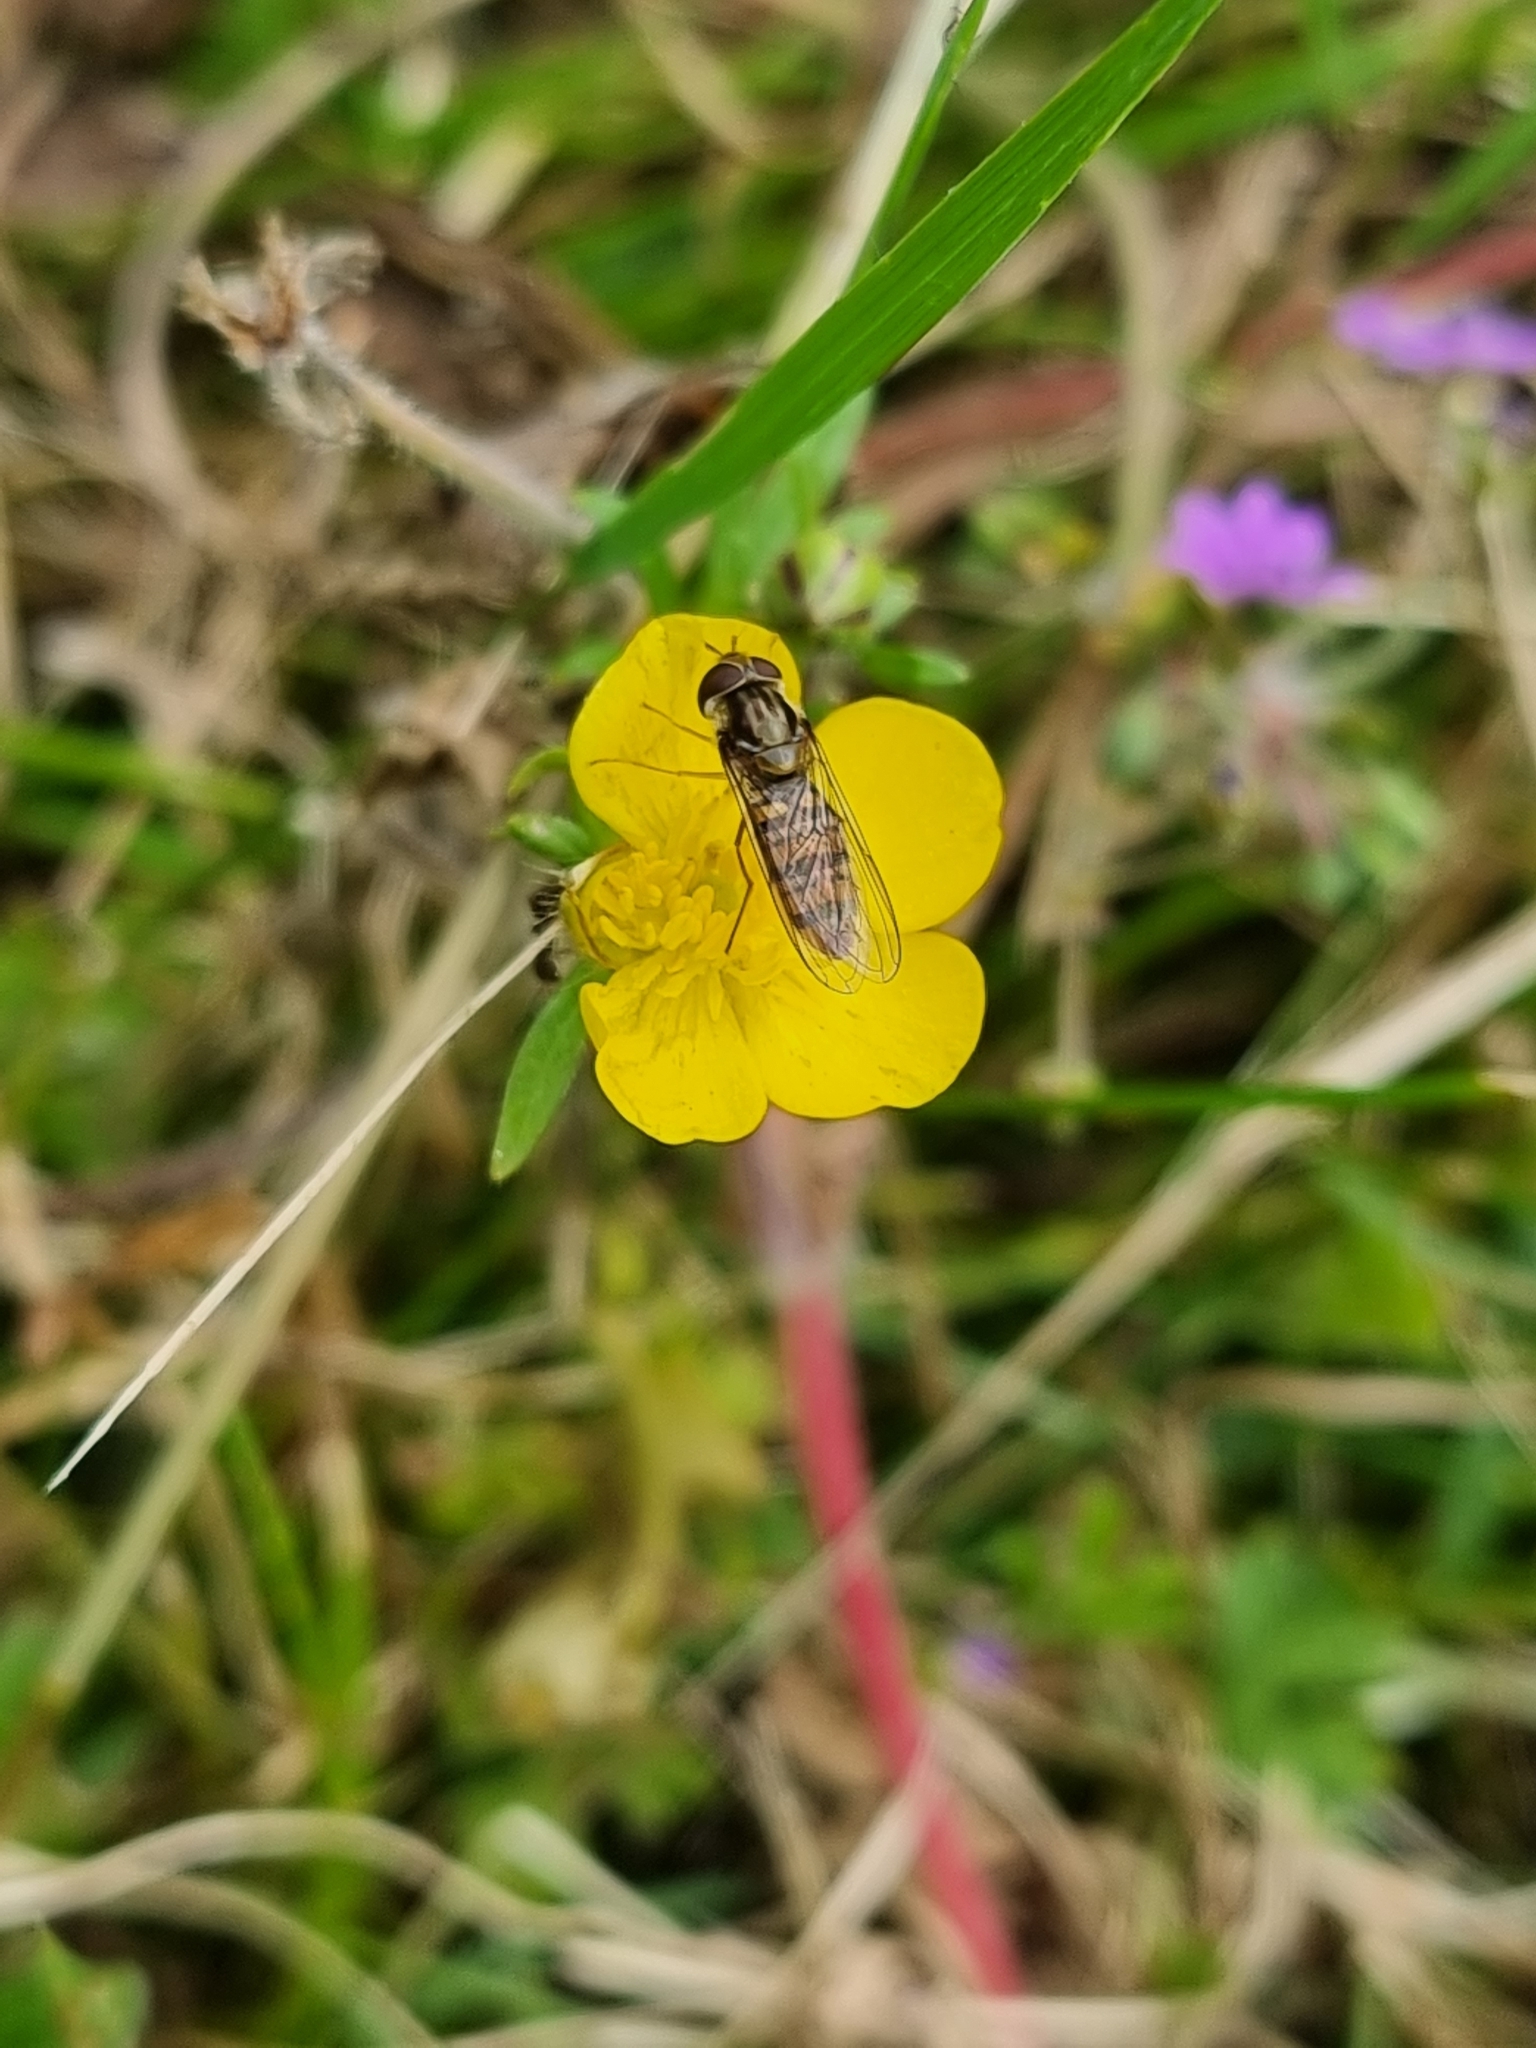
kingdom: Animalia
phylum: Arthropoda
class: Insecta
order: Diptera
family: Syrphidae
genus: Episyrphus
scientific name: Episyrphus balteatus
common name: Marmalade hoverfly
